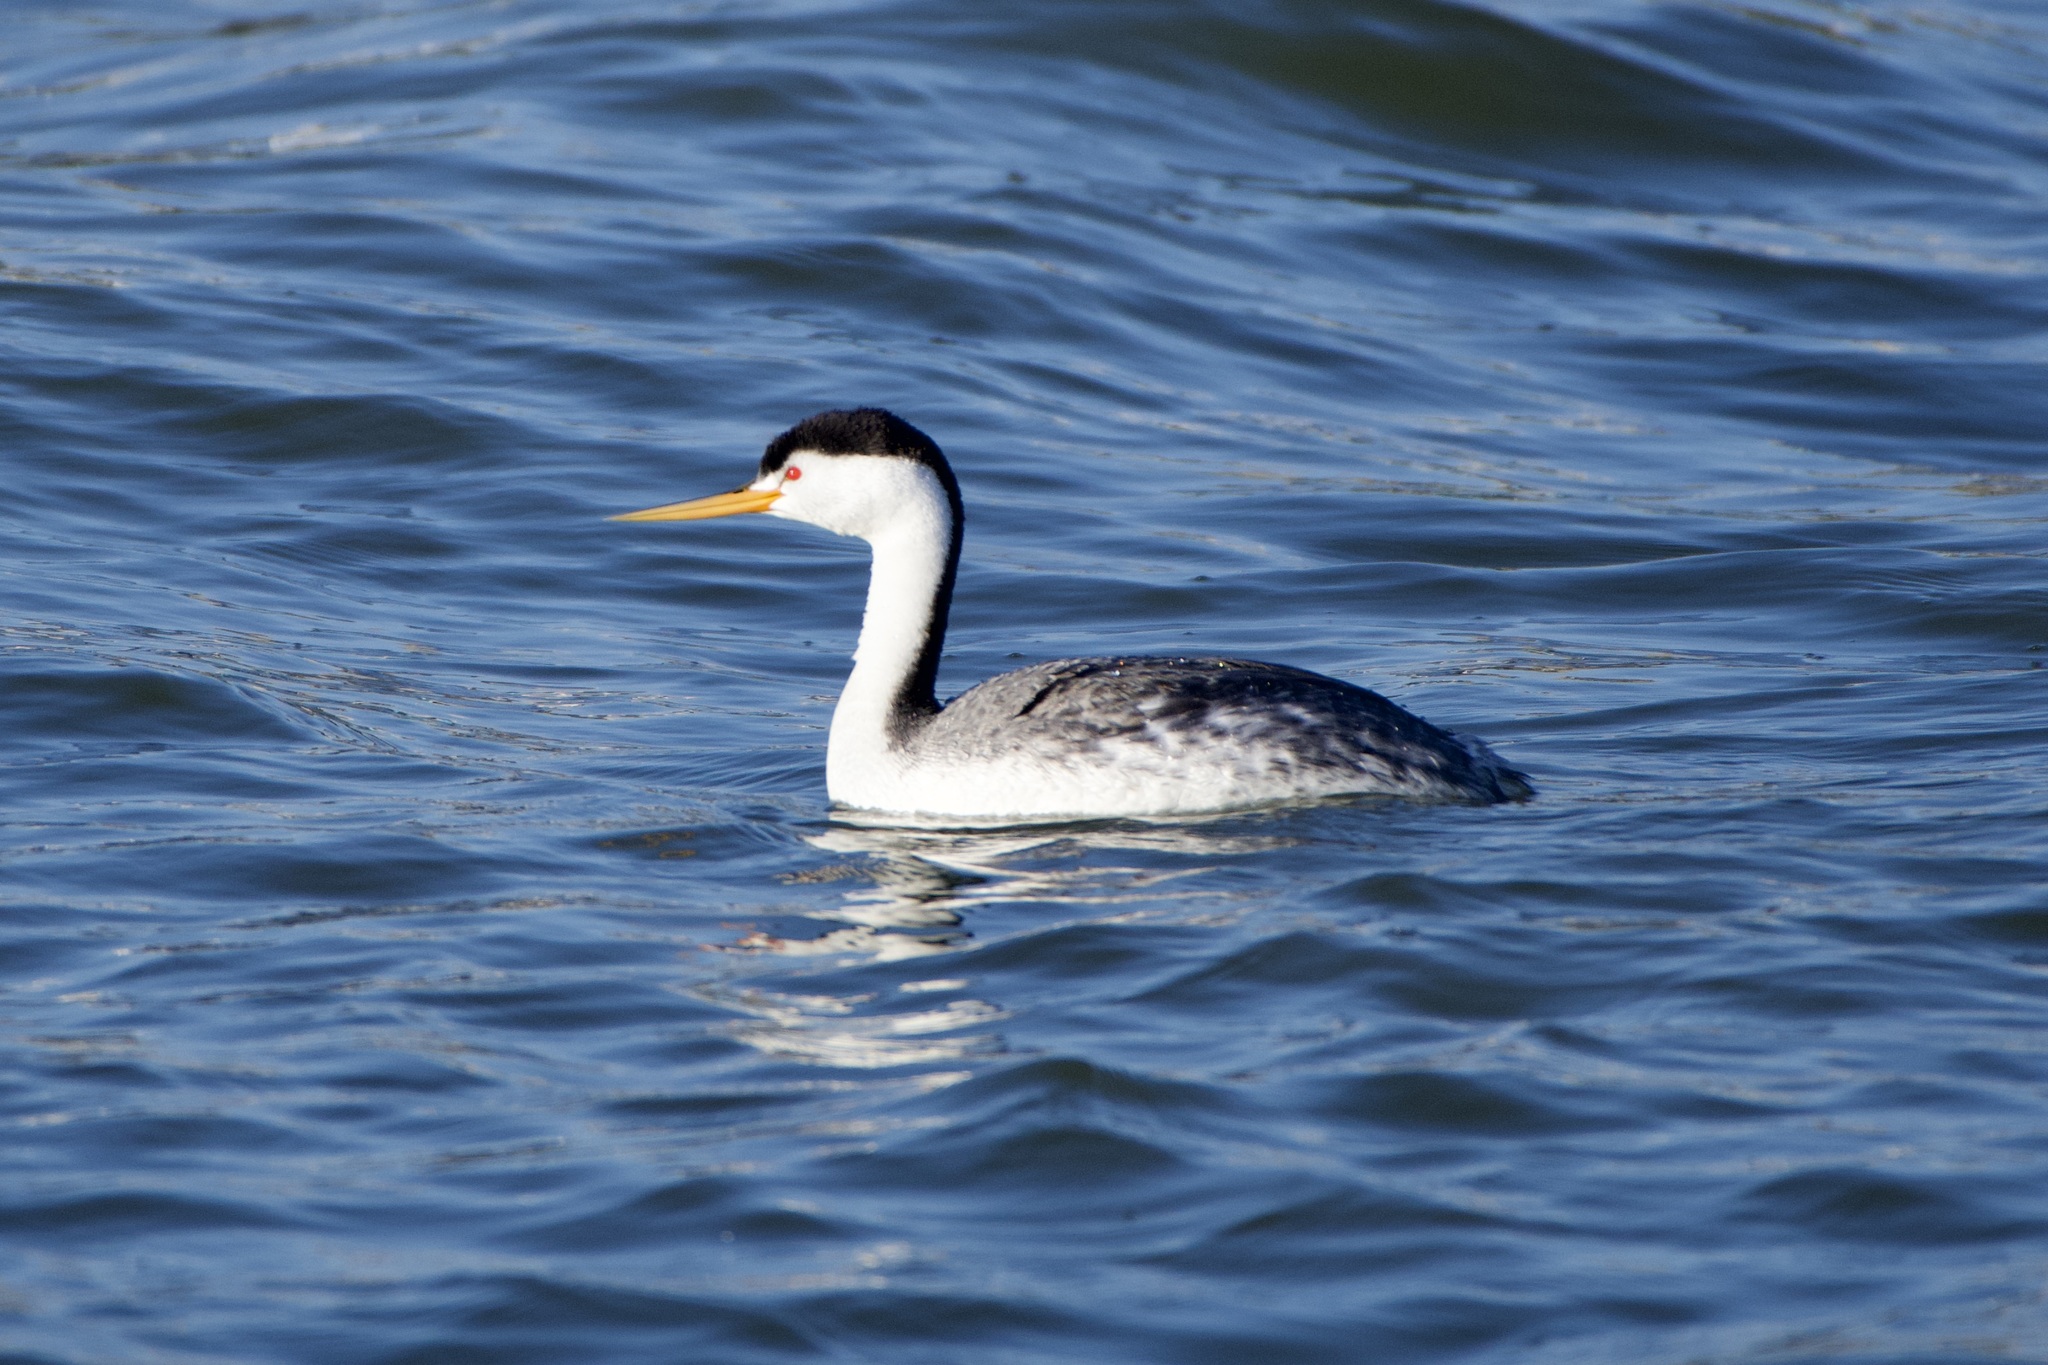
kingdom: Animalia
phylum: Chordata
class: Aves
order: Podicipediformes
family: Podicipedidae
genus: Aechmophorus
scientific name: Aechmophorus clarkii
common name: Clark's grebe
